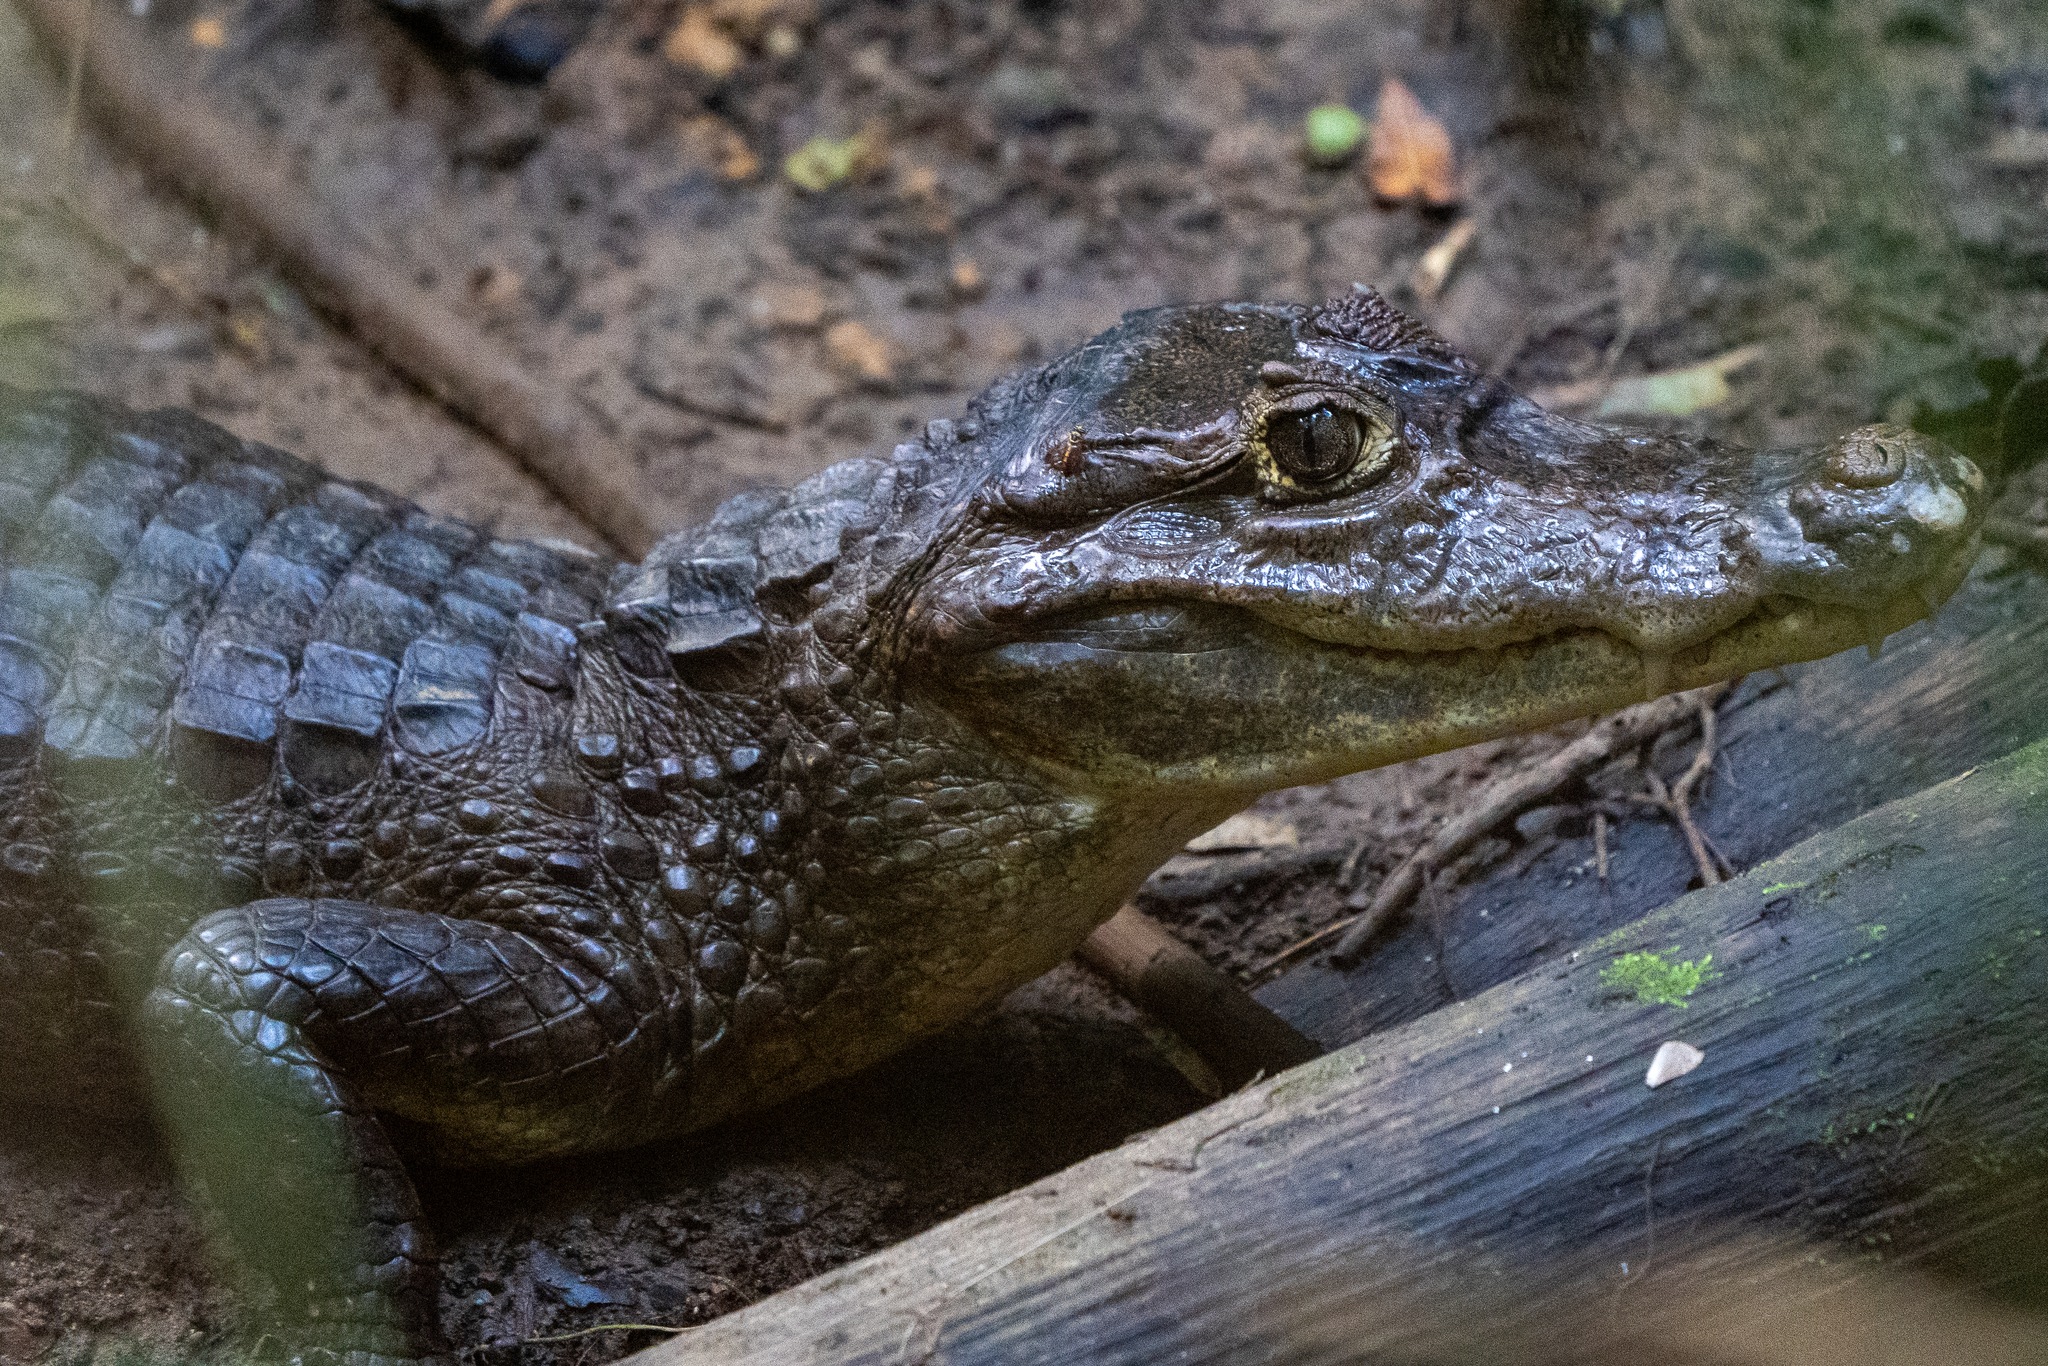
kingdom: Animalia
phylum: Chordata
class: Crocodylia
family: Alligatoridae
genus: Caiman
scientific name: Caiman crocodilus
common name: Common caiman
